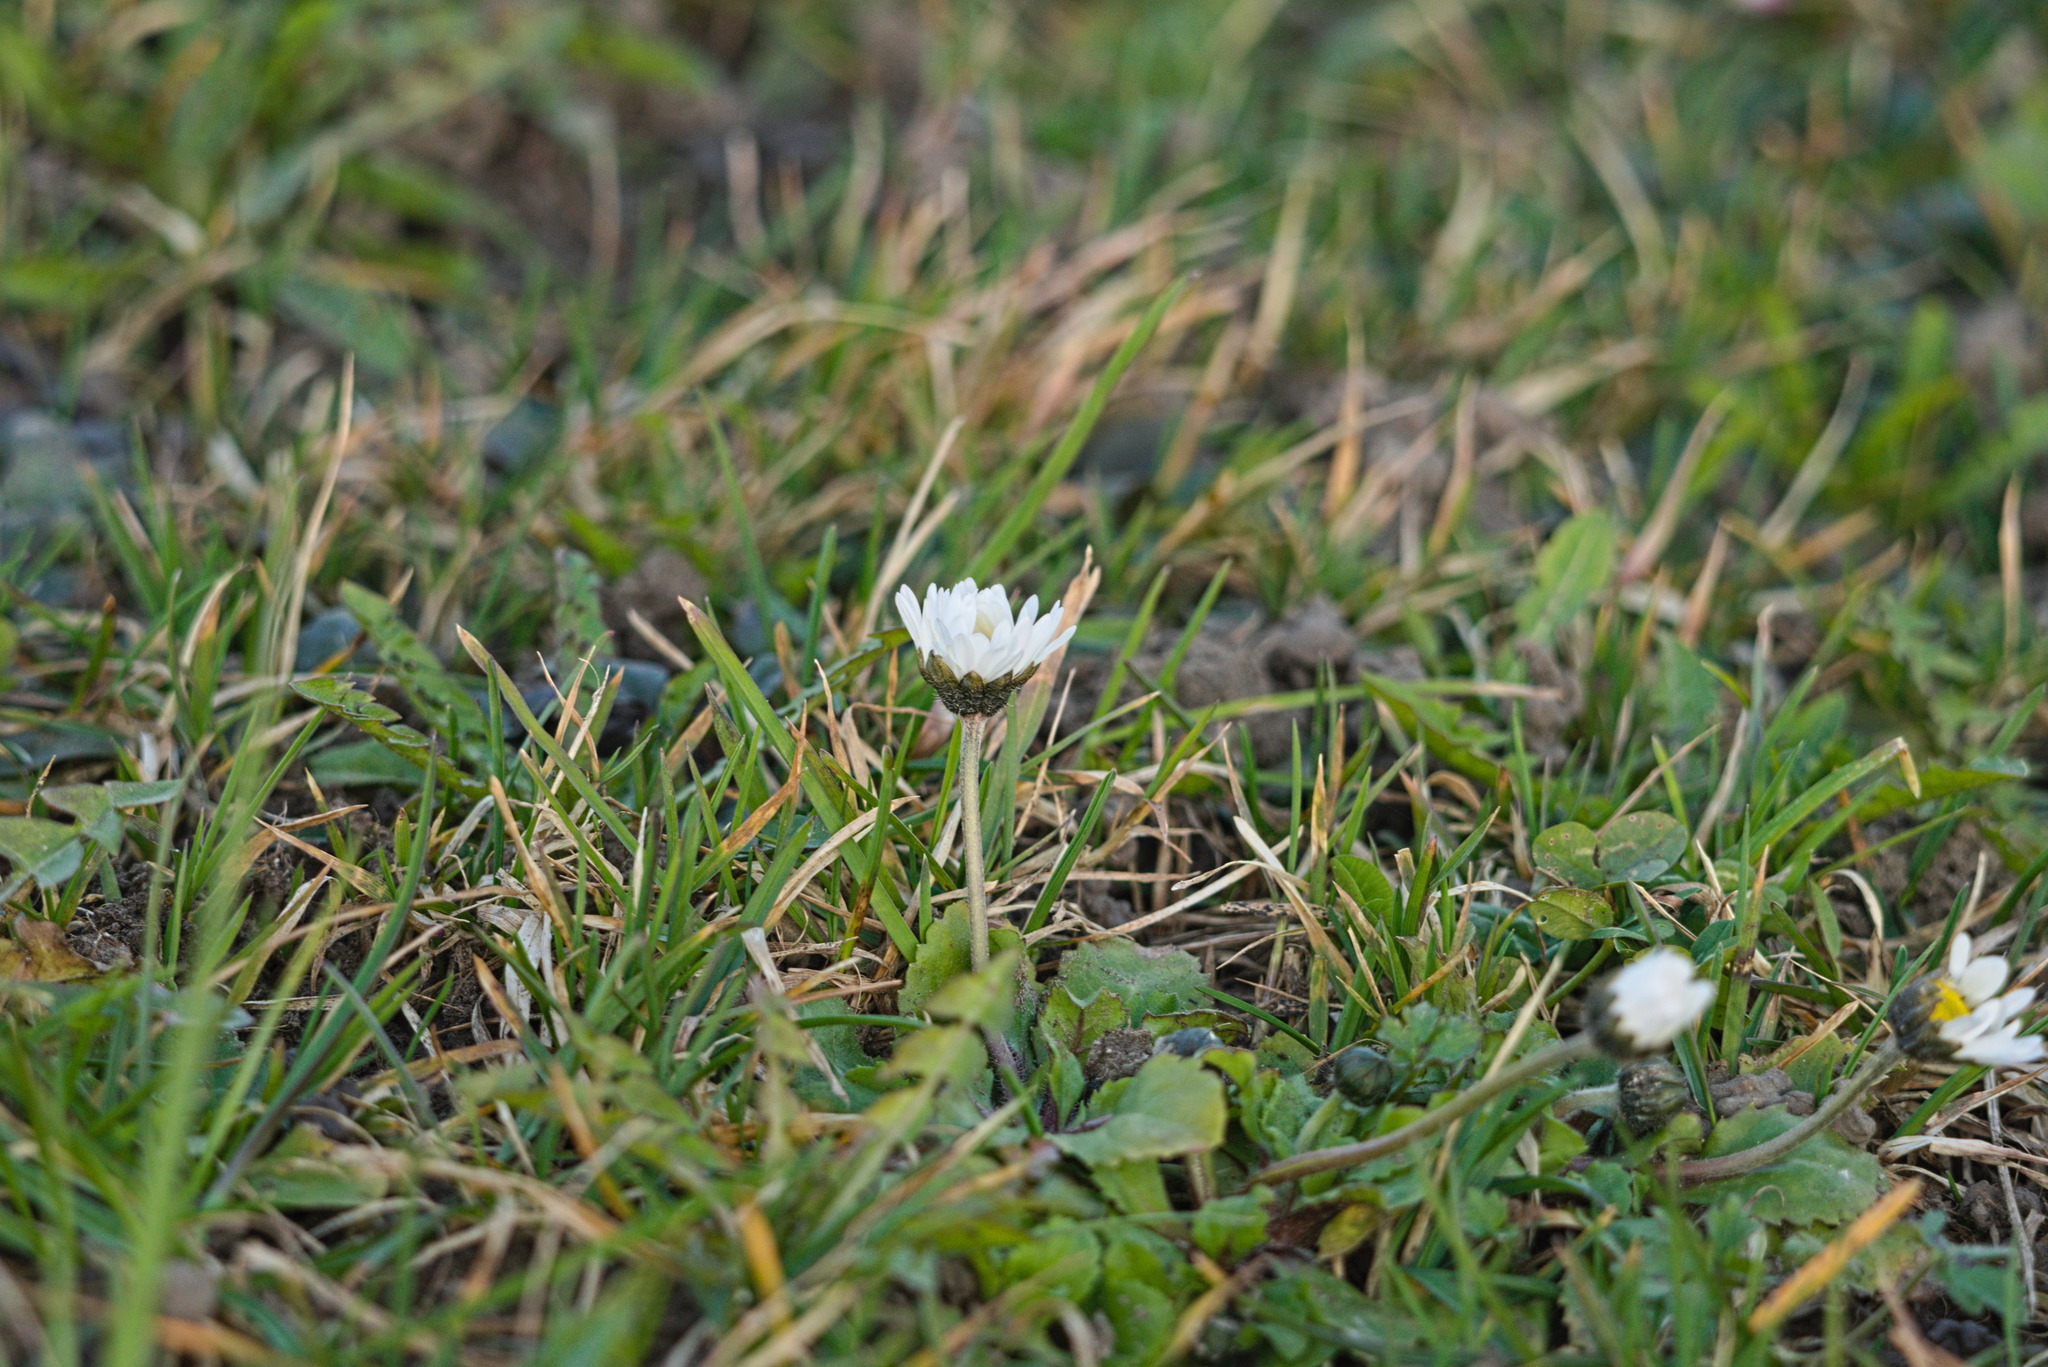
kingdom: Plantae
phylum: Tracheophyta
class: Magnoliopsida
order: Asterales
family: Asteraceae
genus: Bellis
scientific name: Bellis perennis
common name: Lawndaisy
